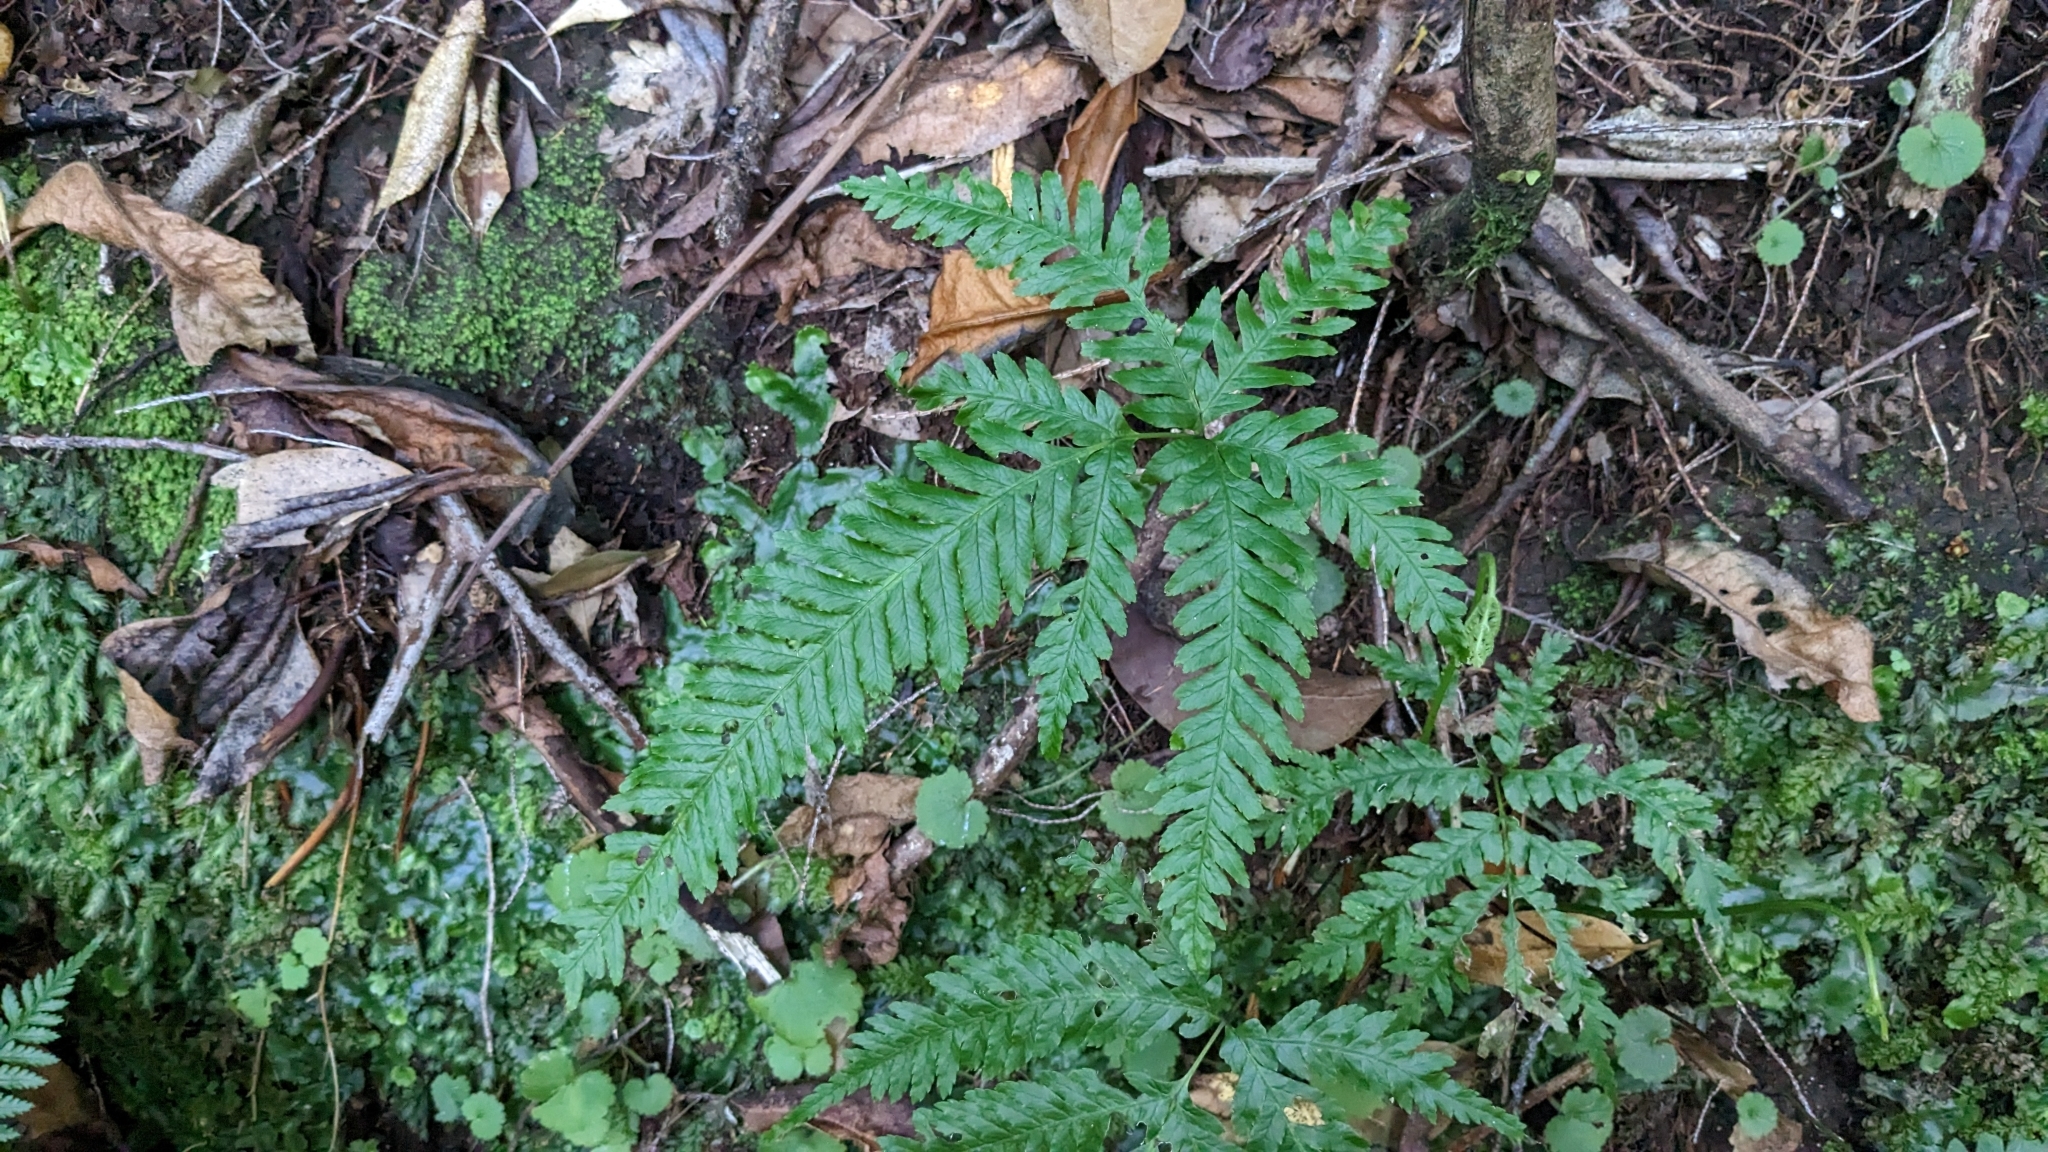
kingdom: Plantae
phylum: Tracheophyta
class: Polypodiopsida
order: Polypodiales
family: Pteridaceae
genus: Pteris
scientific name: Pteris incompleta
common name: Laurisilva brake
